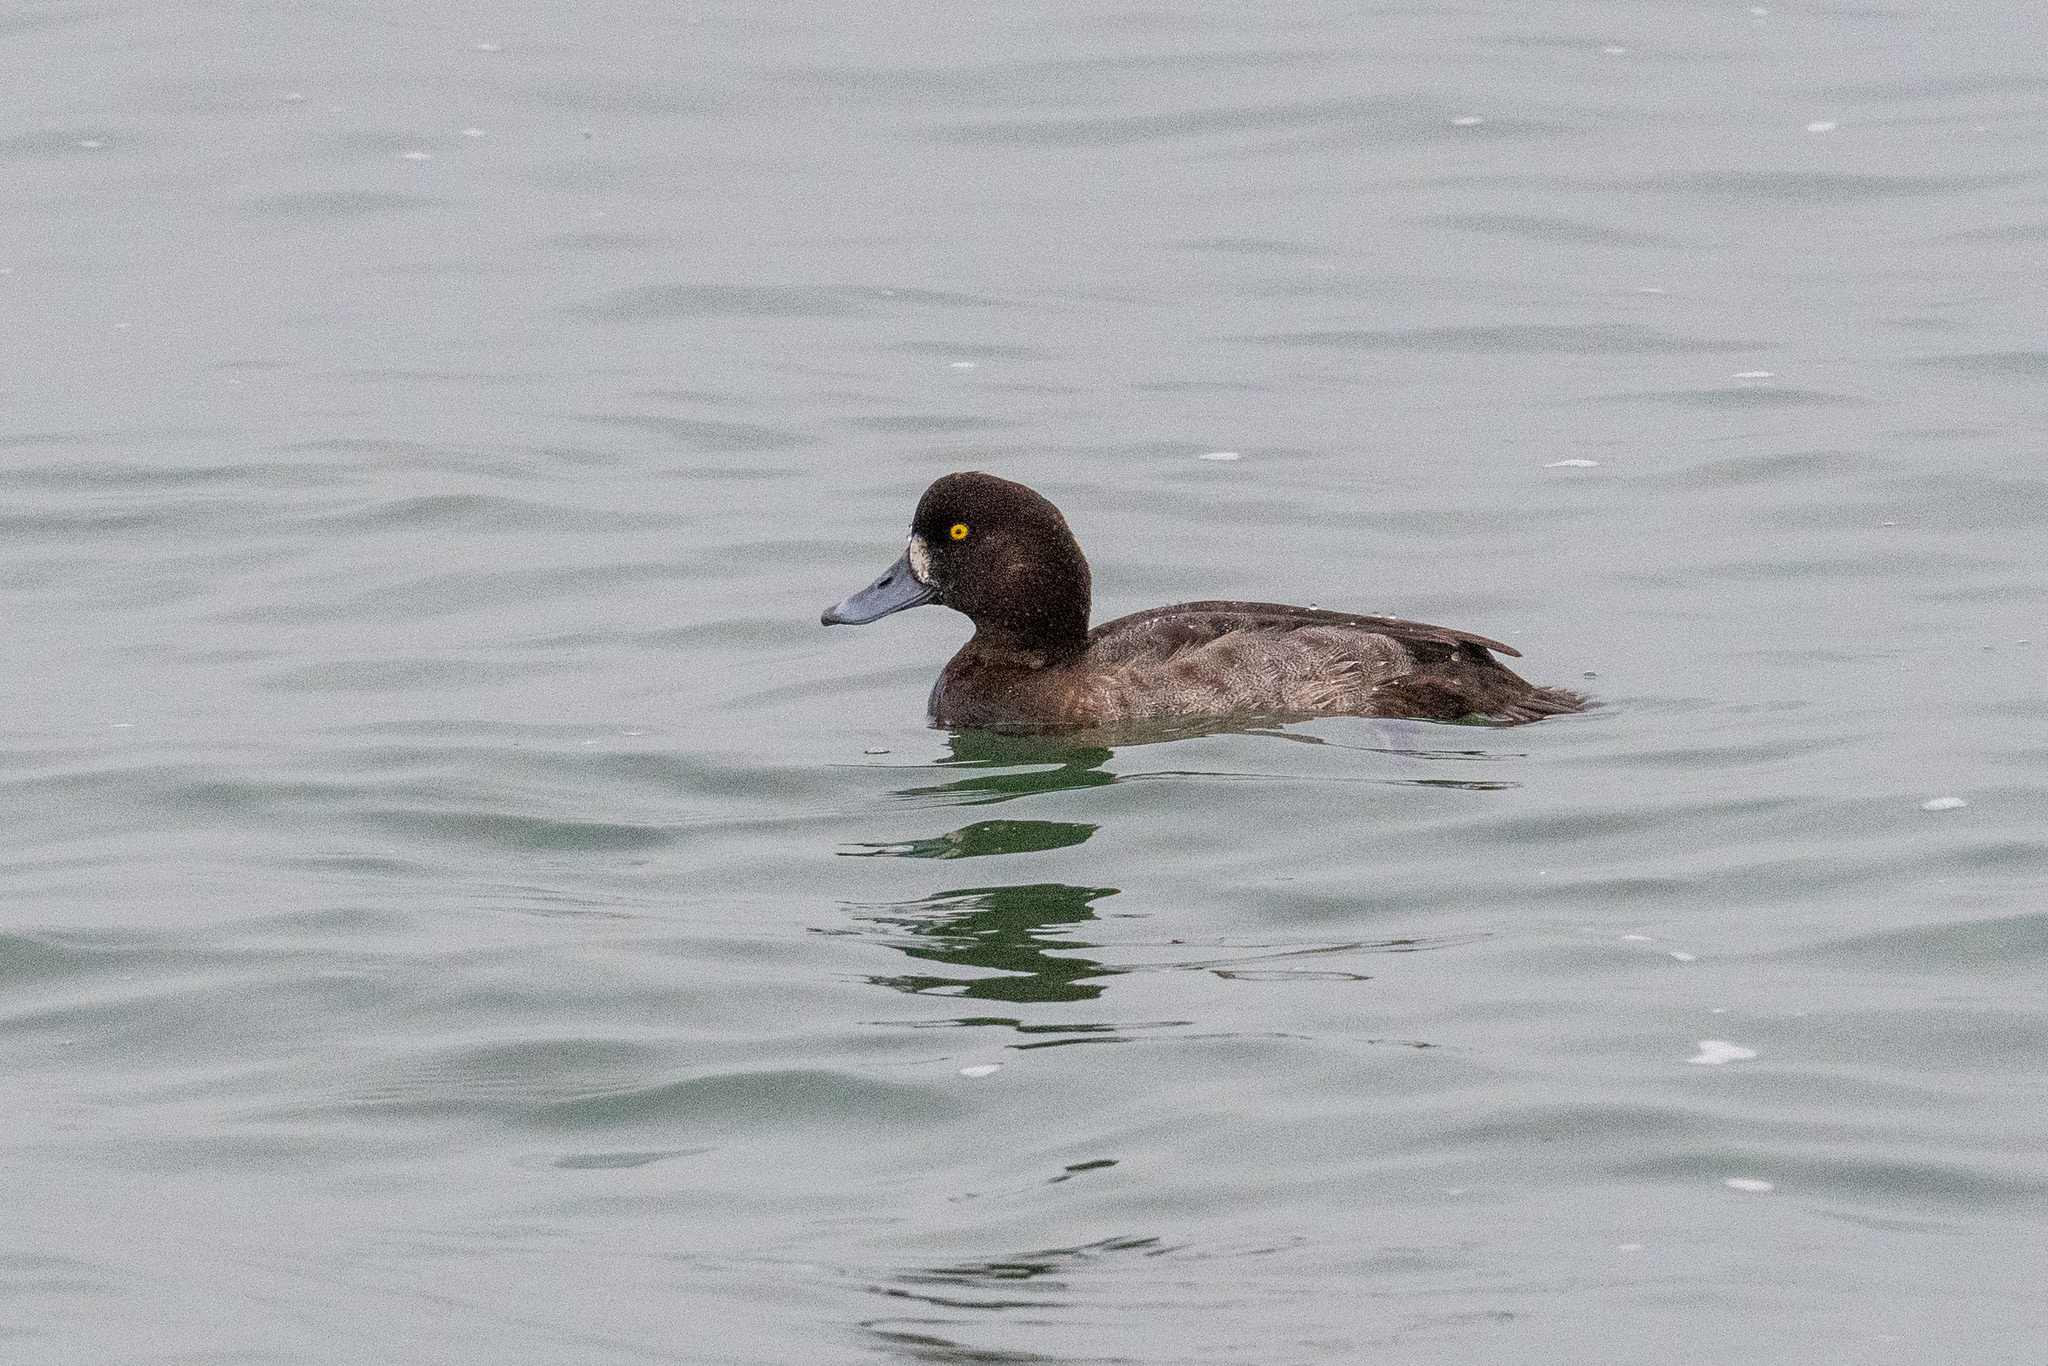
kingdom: Animalia
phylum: Chordata
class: Aves
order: Anseriformes
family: Anatidae
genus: Aythya
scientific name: Aythya marila
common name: Greater scaup
